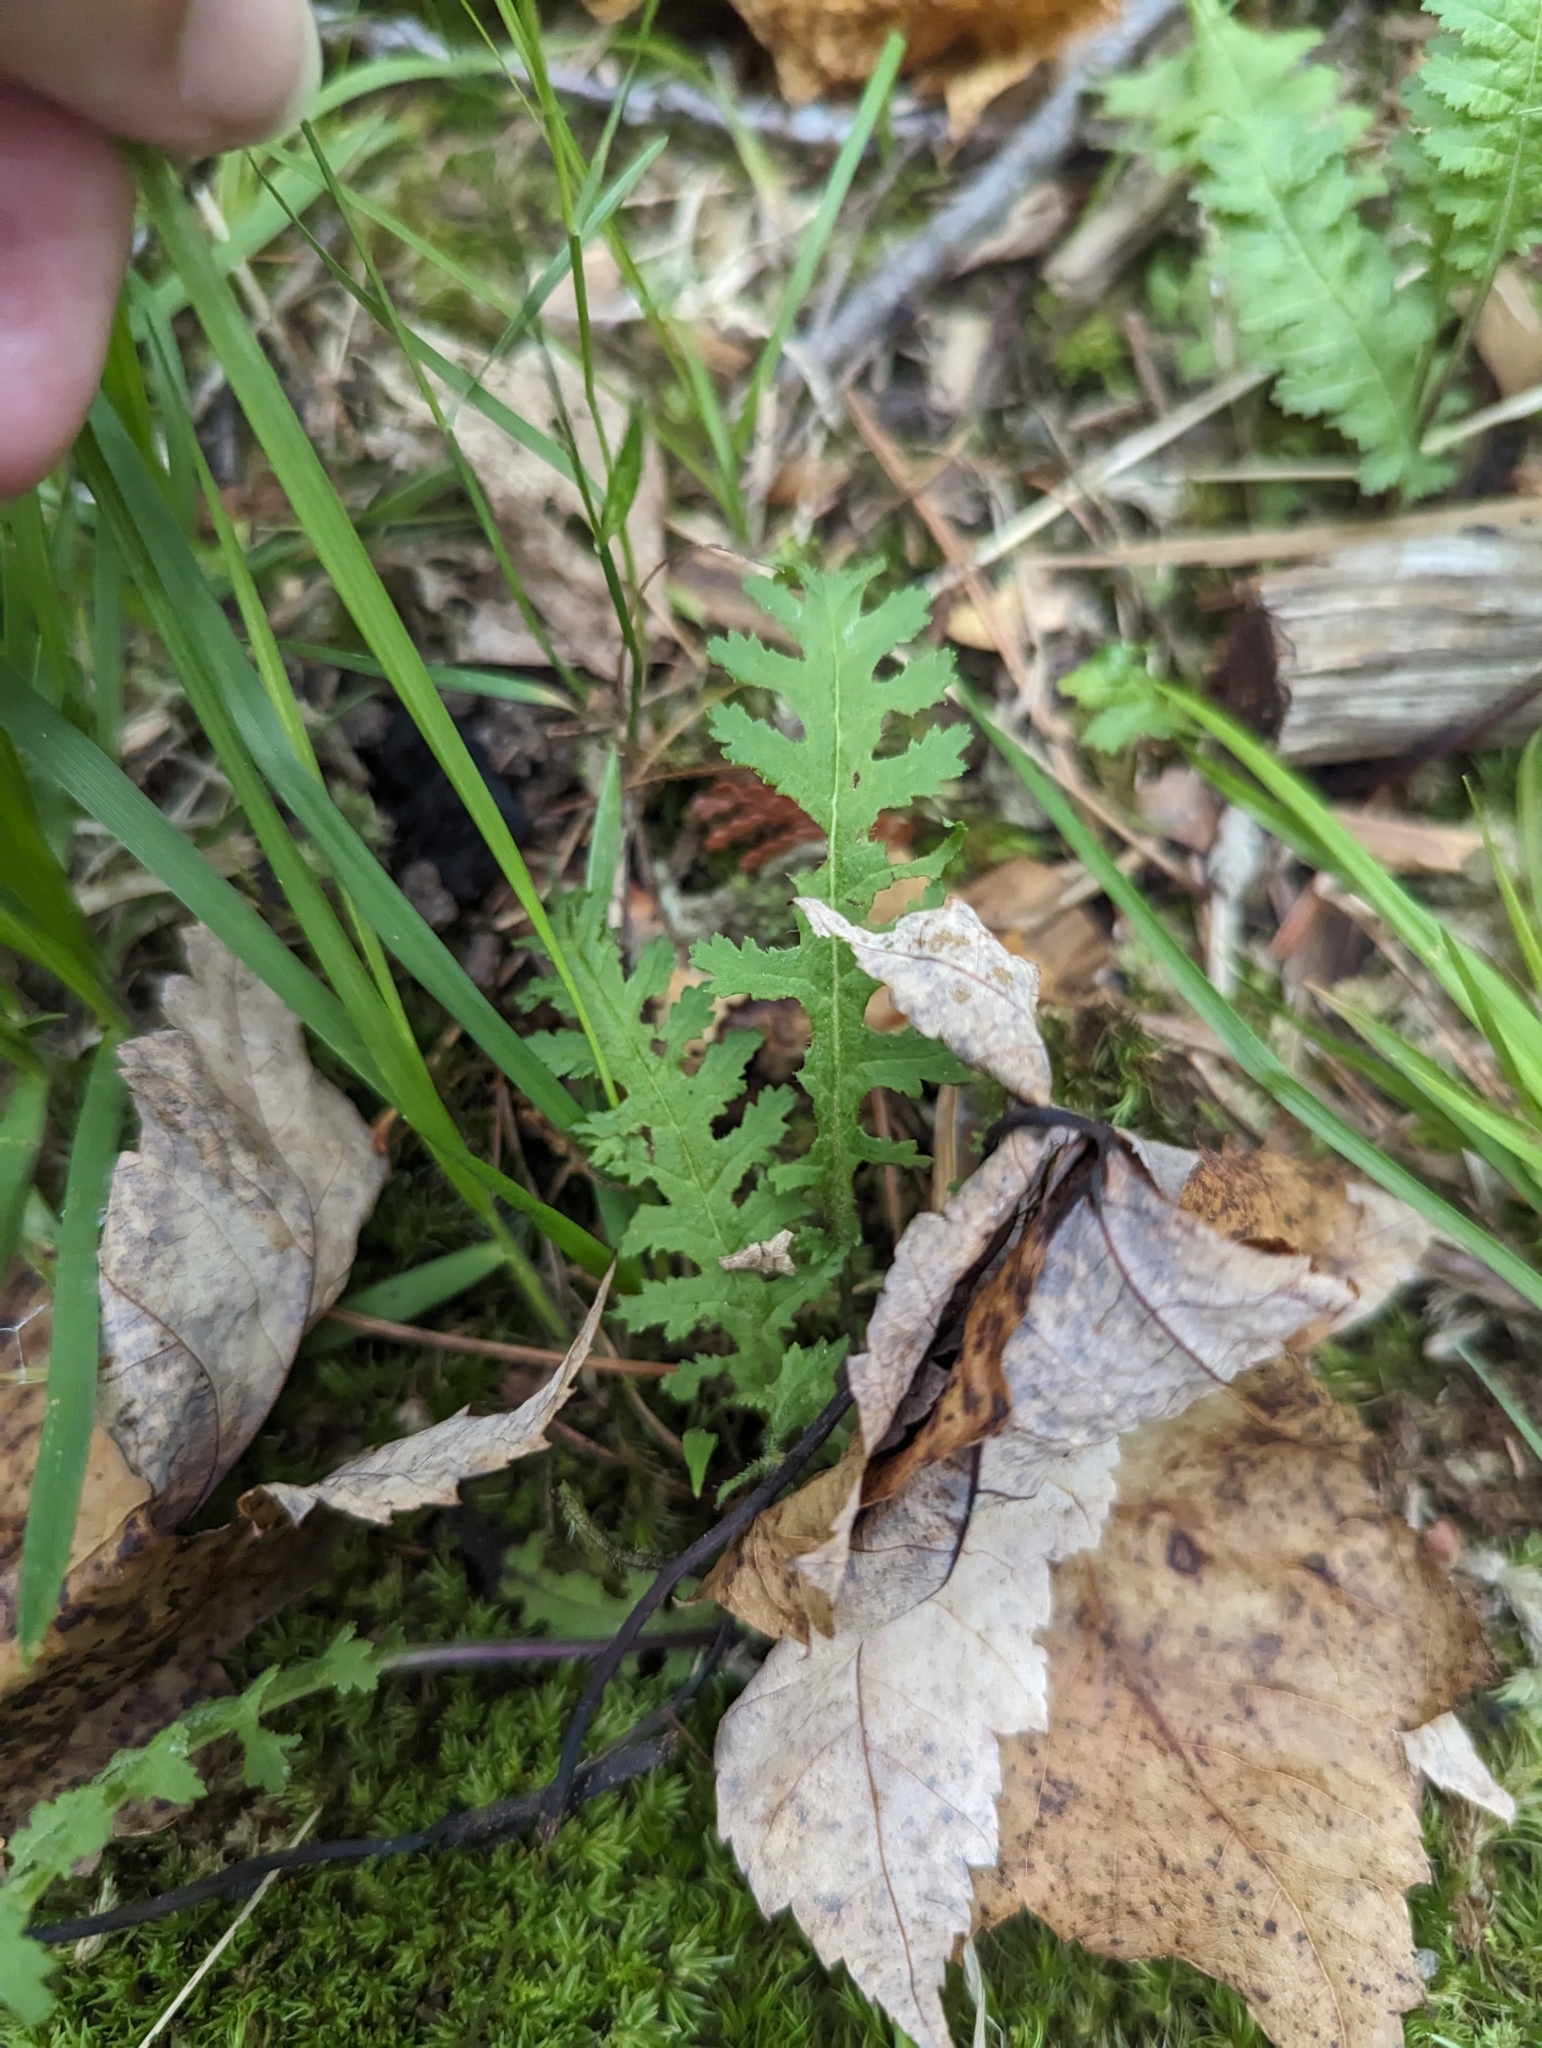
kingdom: Plantae
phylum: Tracheophyta
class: Magnoliopsida
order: Lamiales
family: Orobanchaceae
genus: Pedicularis
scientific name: Pedicularis canadensis
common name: Early lousewort
